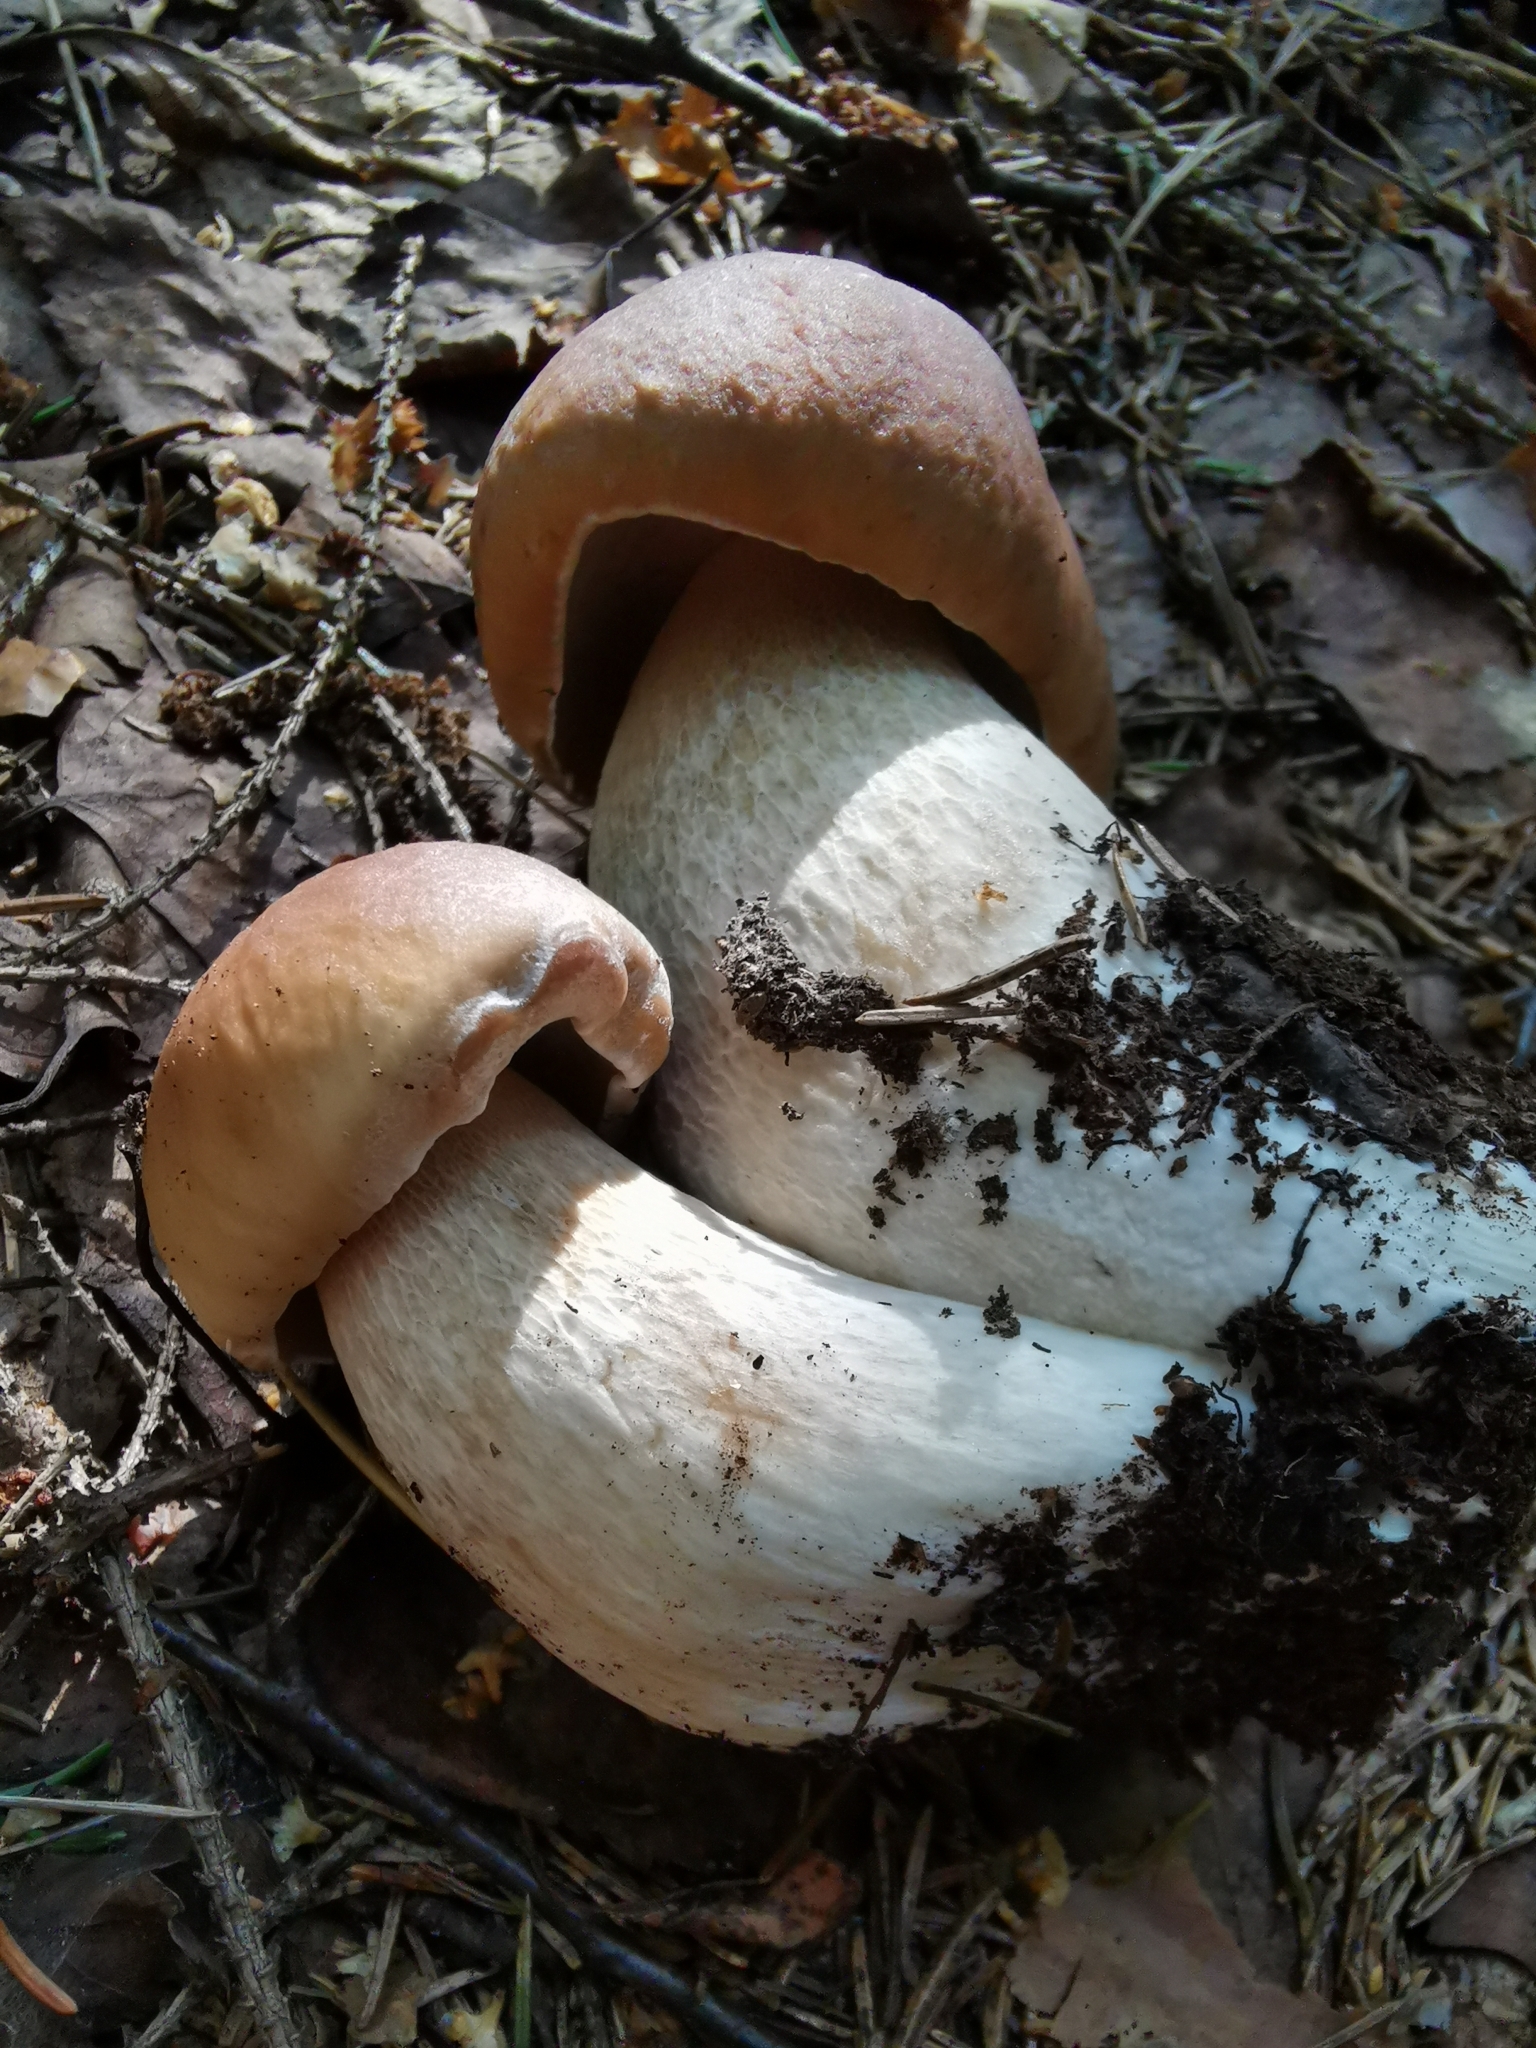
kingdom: Fungi
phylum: Basidiomycota
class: Agaricomycetes
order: Boletales
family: Boletaceae
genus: Boletus
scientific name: Boletus edulis
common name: Cep
